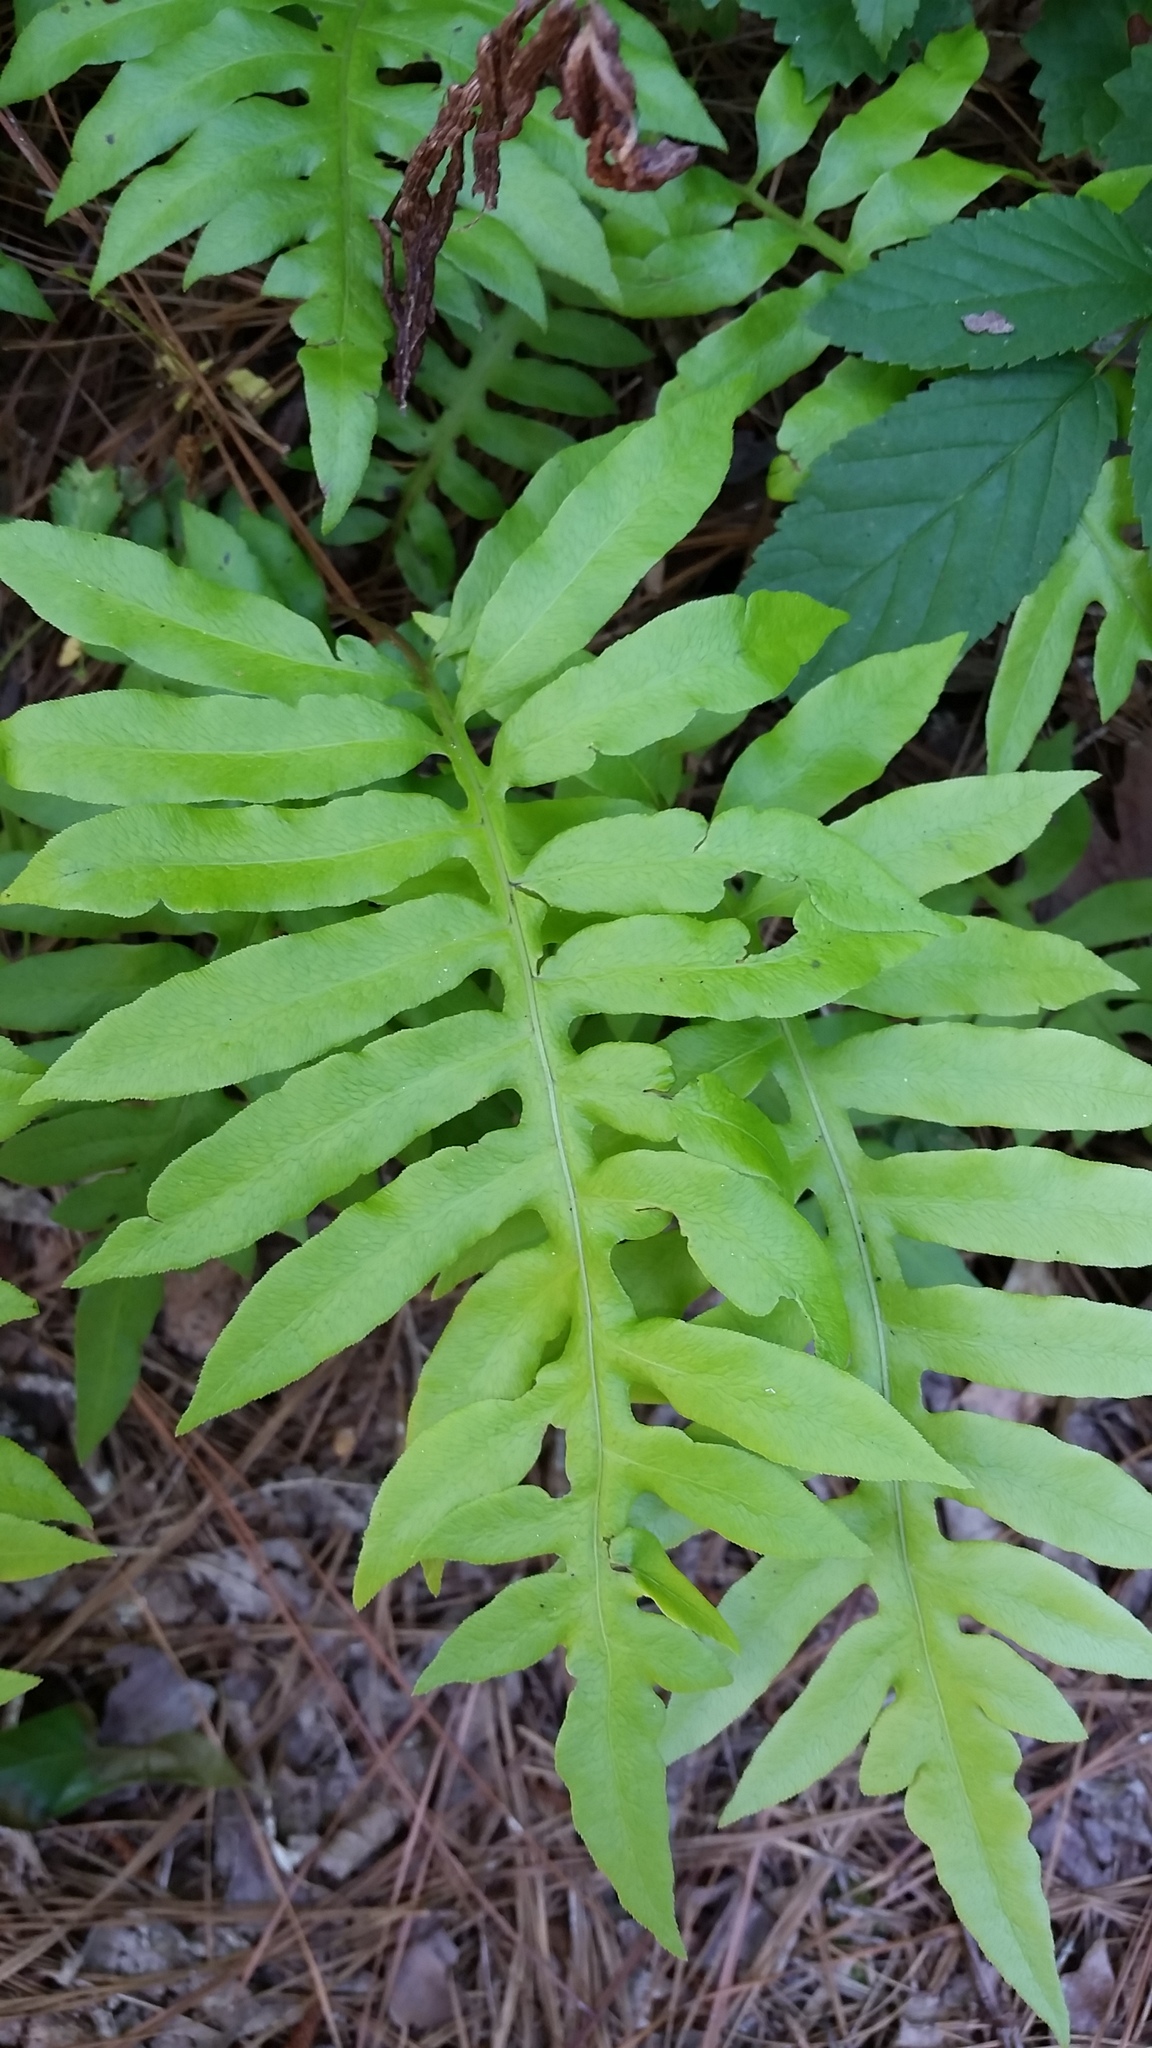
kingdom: Plantae
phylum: Tracheophyta
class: Polypodiopsida
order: Polypodiales
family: Onocleaceae
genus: Onoclea
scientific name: Onoclea sensibilis
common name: Sensitive fern
